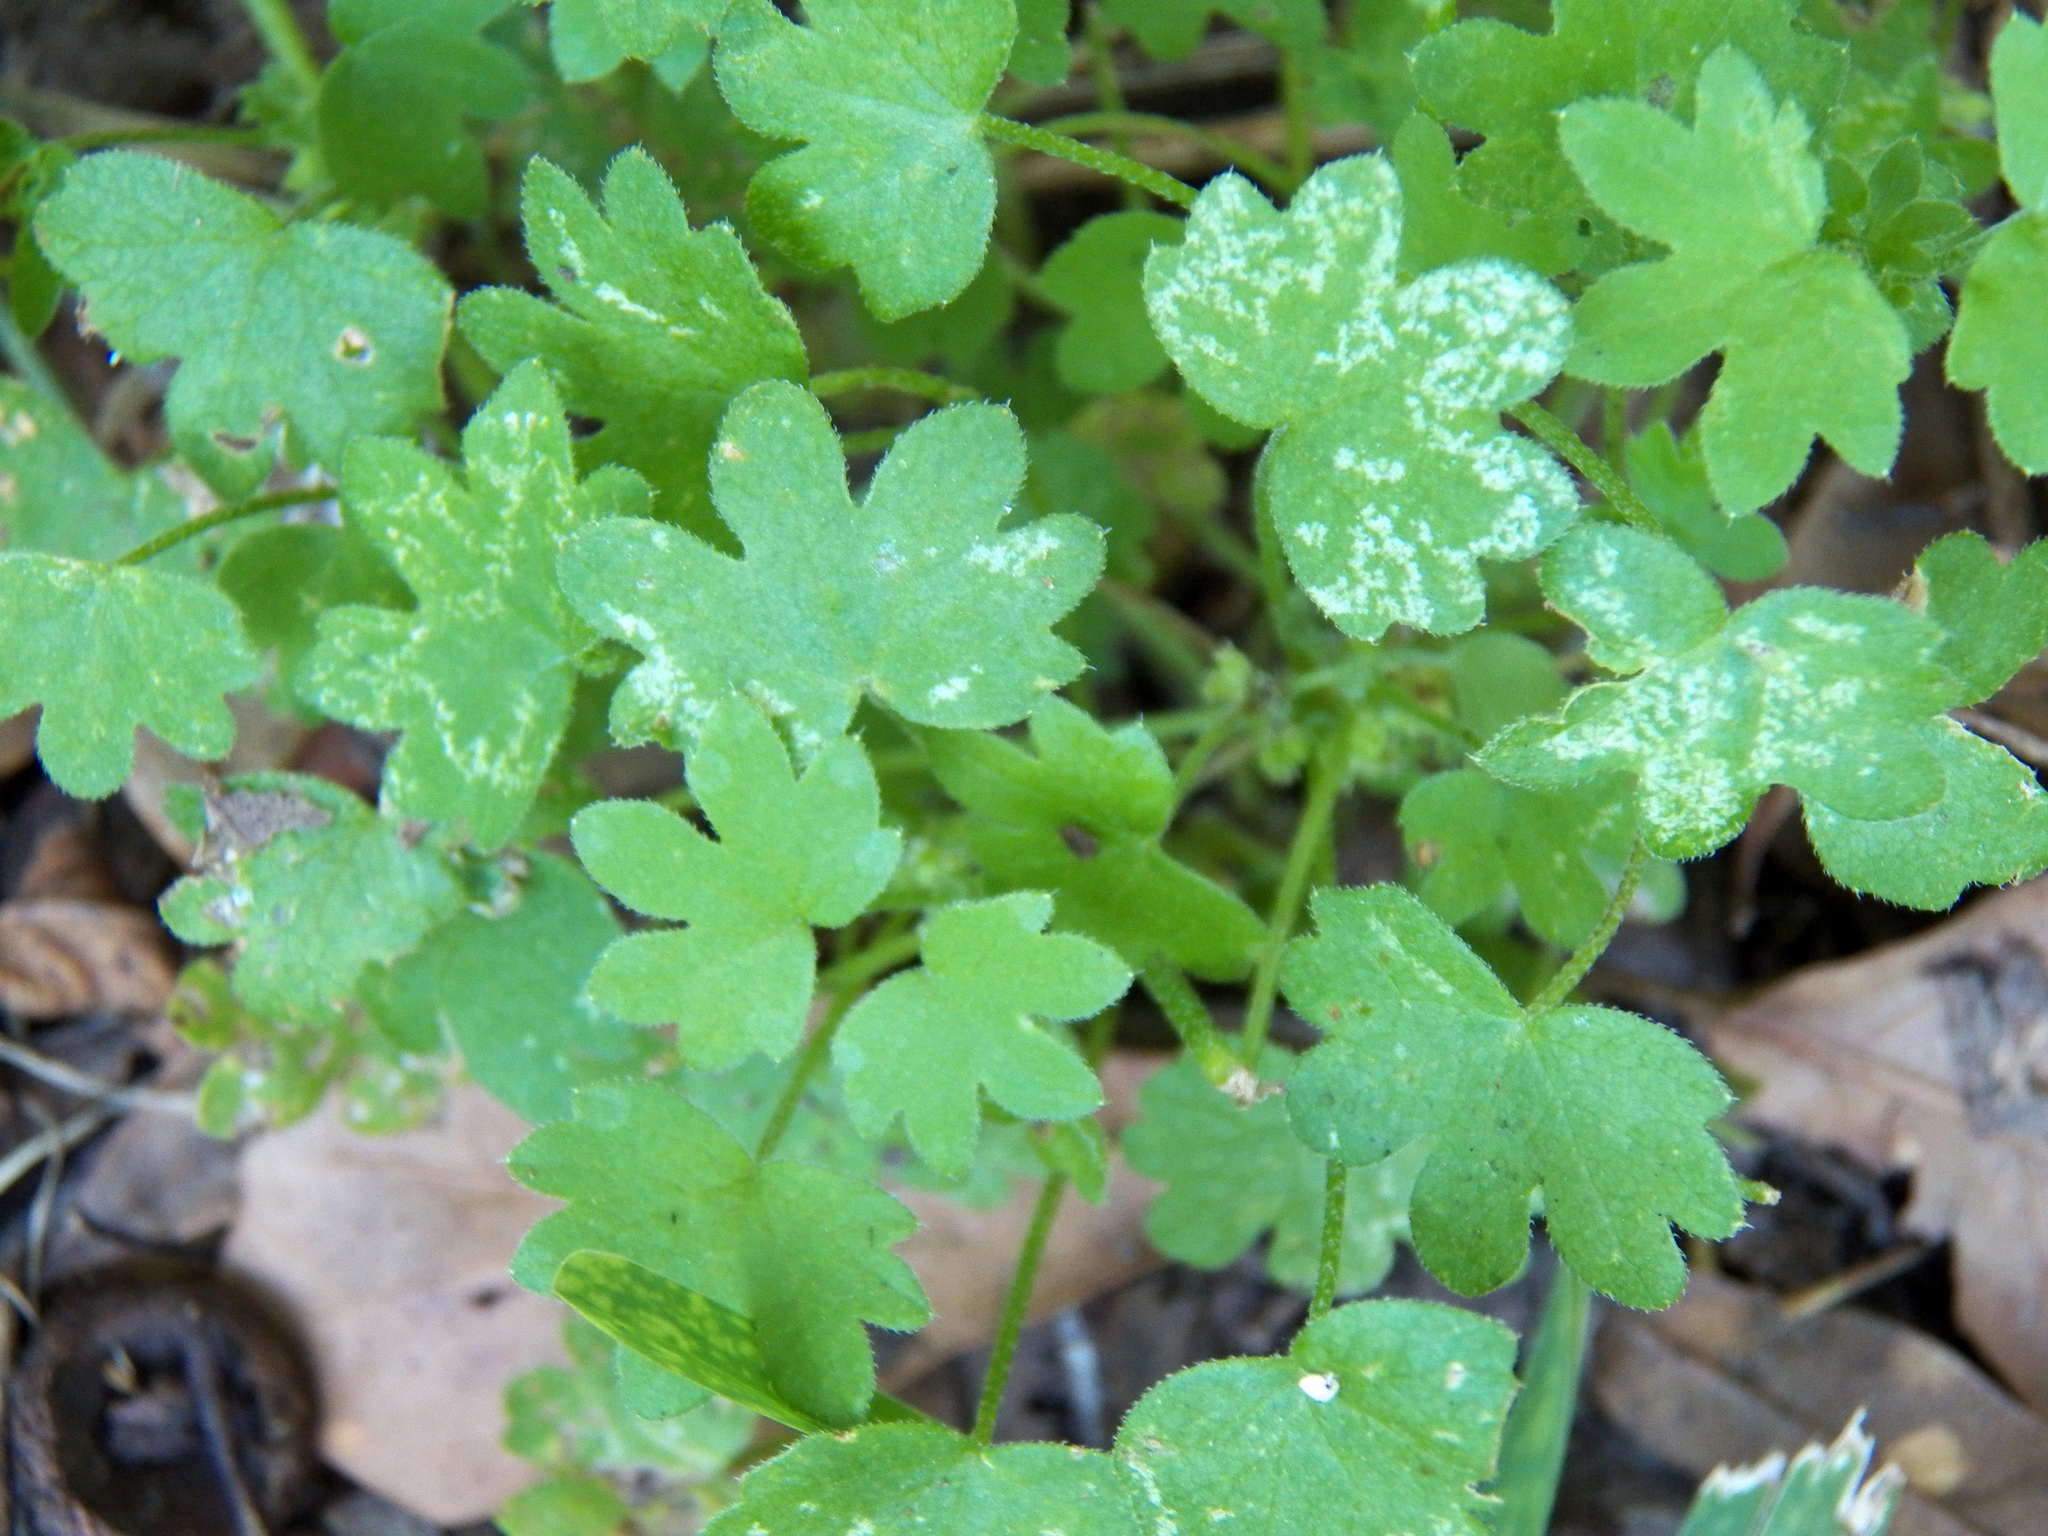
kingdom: Plantae
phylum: Tracheophyta
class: Magnoliopsida
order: Apiales
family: Apiaceae
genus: Bowlesia
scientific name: Bowlesia incana
